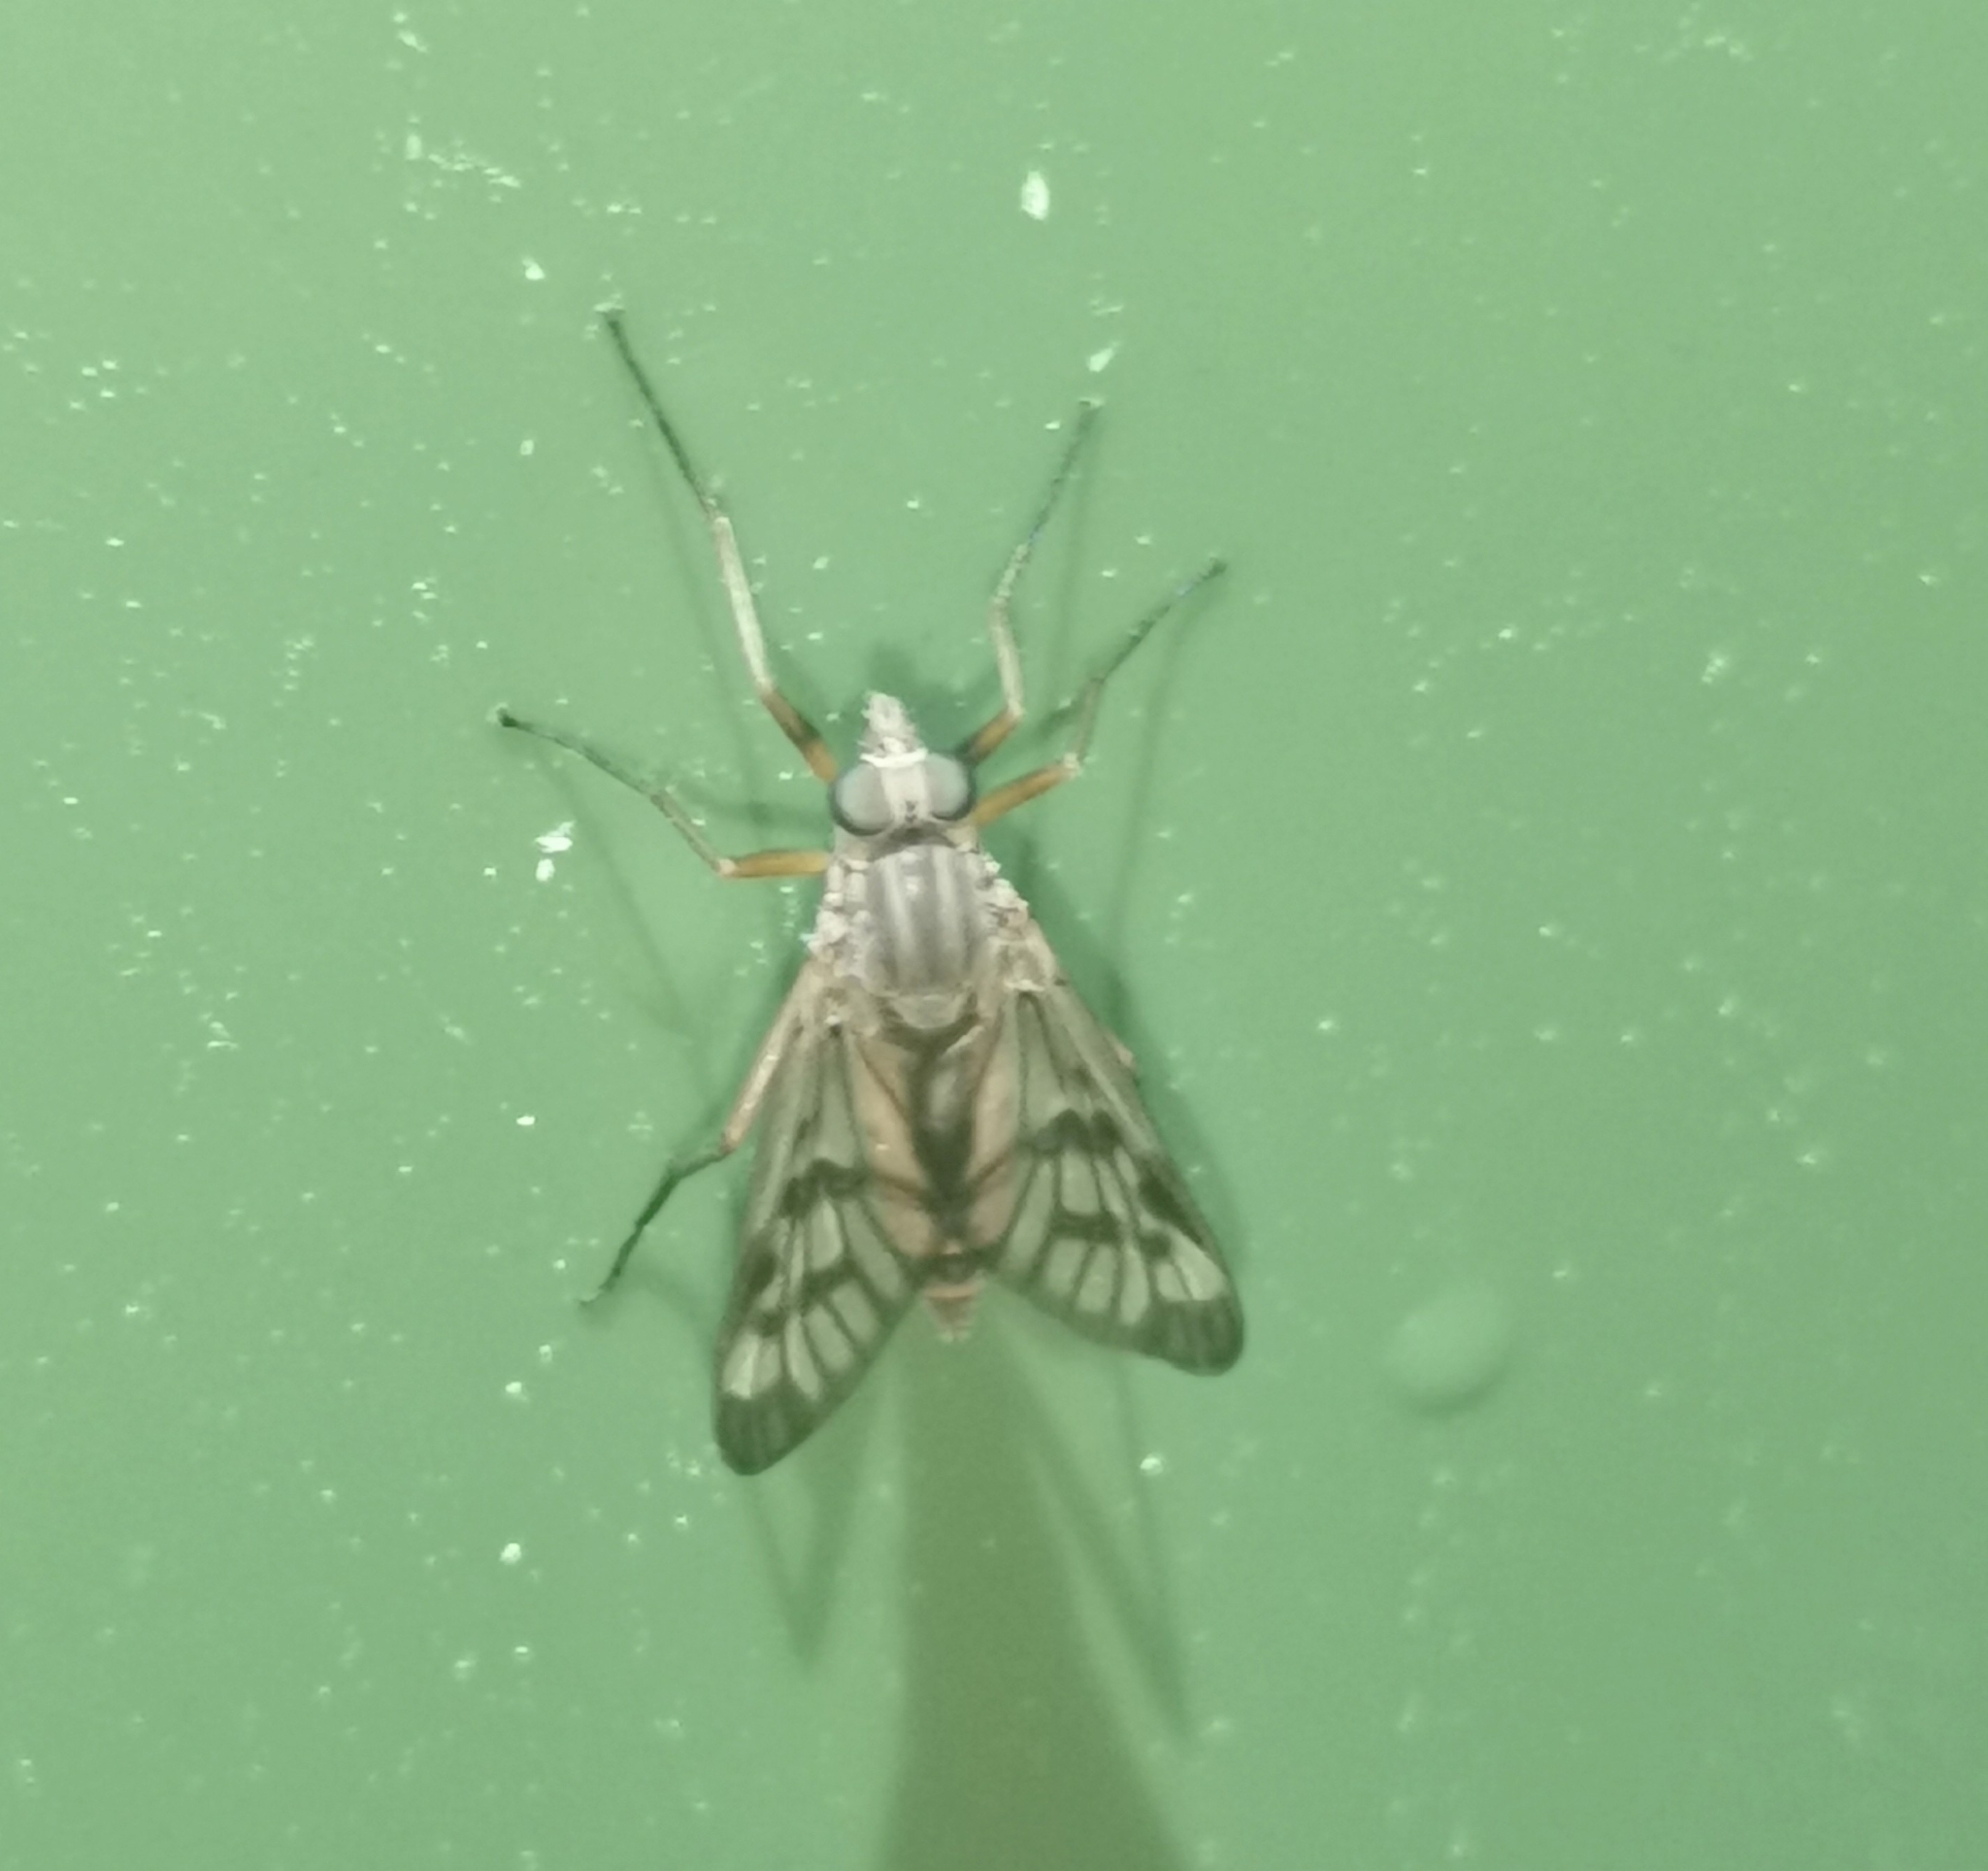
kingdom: Animalia
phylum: Arthropoda
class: Insecta
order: Diptera
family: Rhagionidae
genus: Rhagio
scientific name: Rhagio scolopacea
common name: Downlooker snipefly
